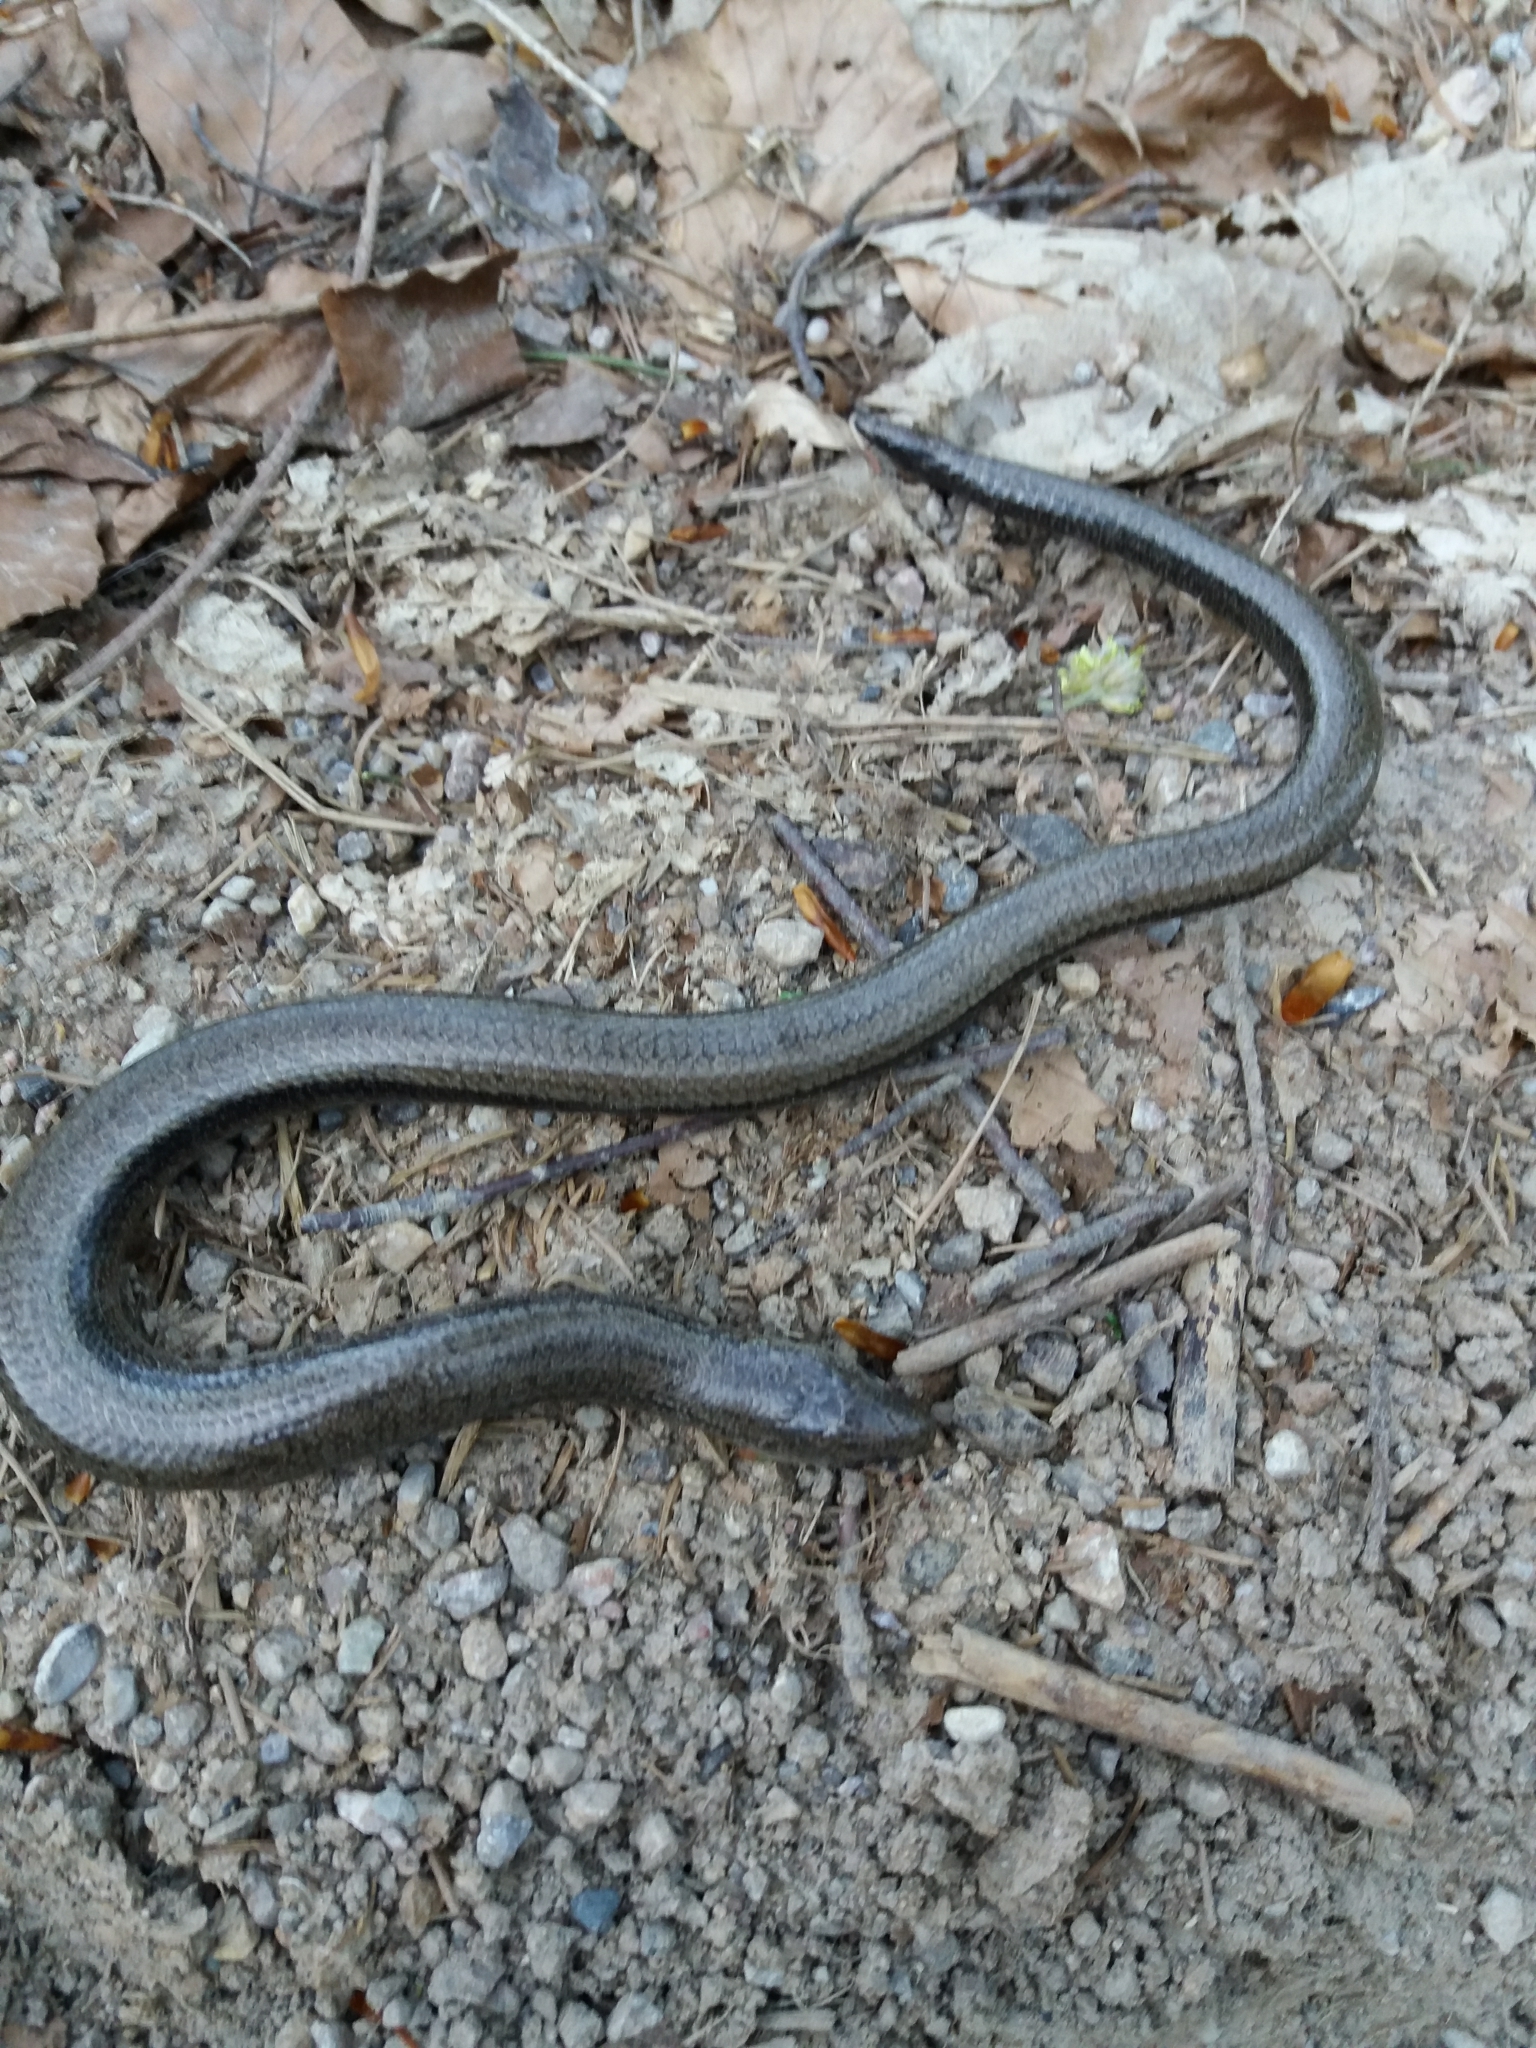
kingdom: Animalia
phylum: Chordata
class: Squamata
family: Anguidae
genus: Anguis
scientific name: Anguis fragilis
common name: Slow worm
